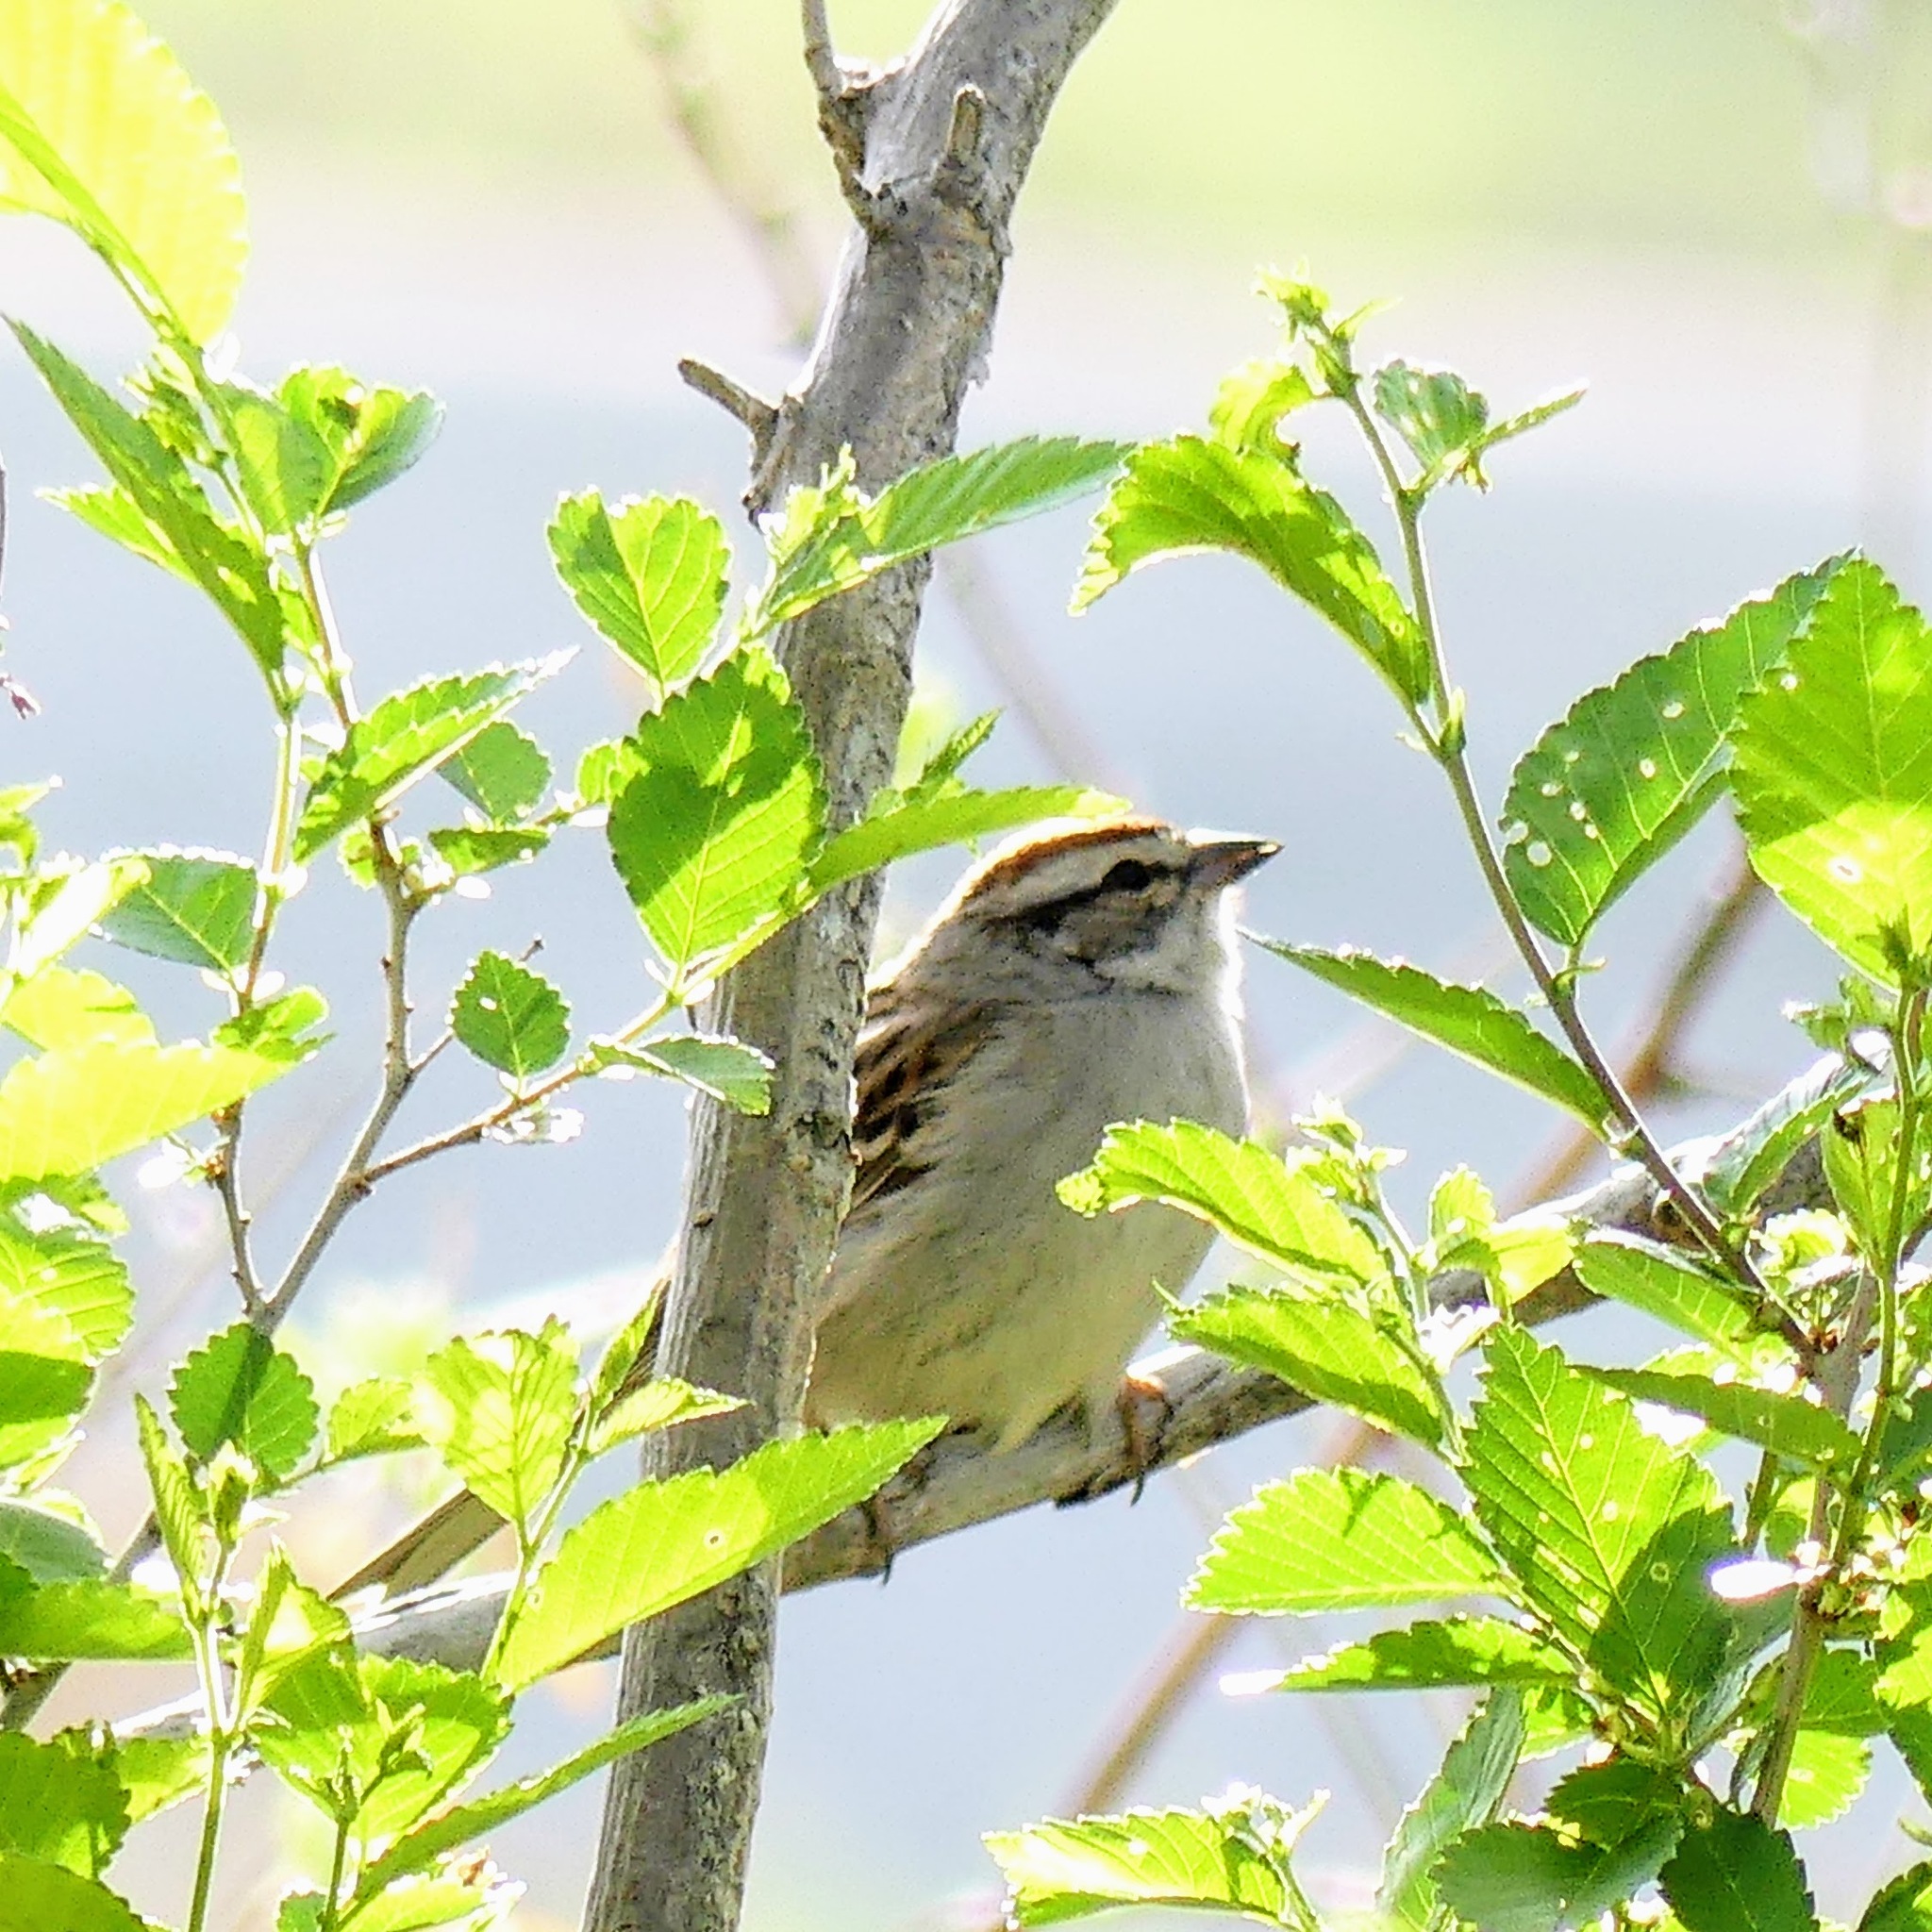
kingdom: Animalia
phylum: Chordata
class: Aves
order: Passeriformes
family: Passerellidae
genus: Spizella
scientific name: Spizella passerina
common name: Chipping sparrow
